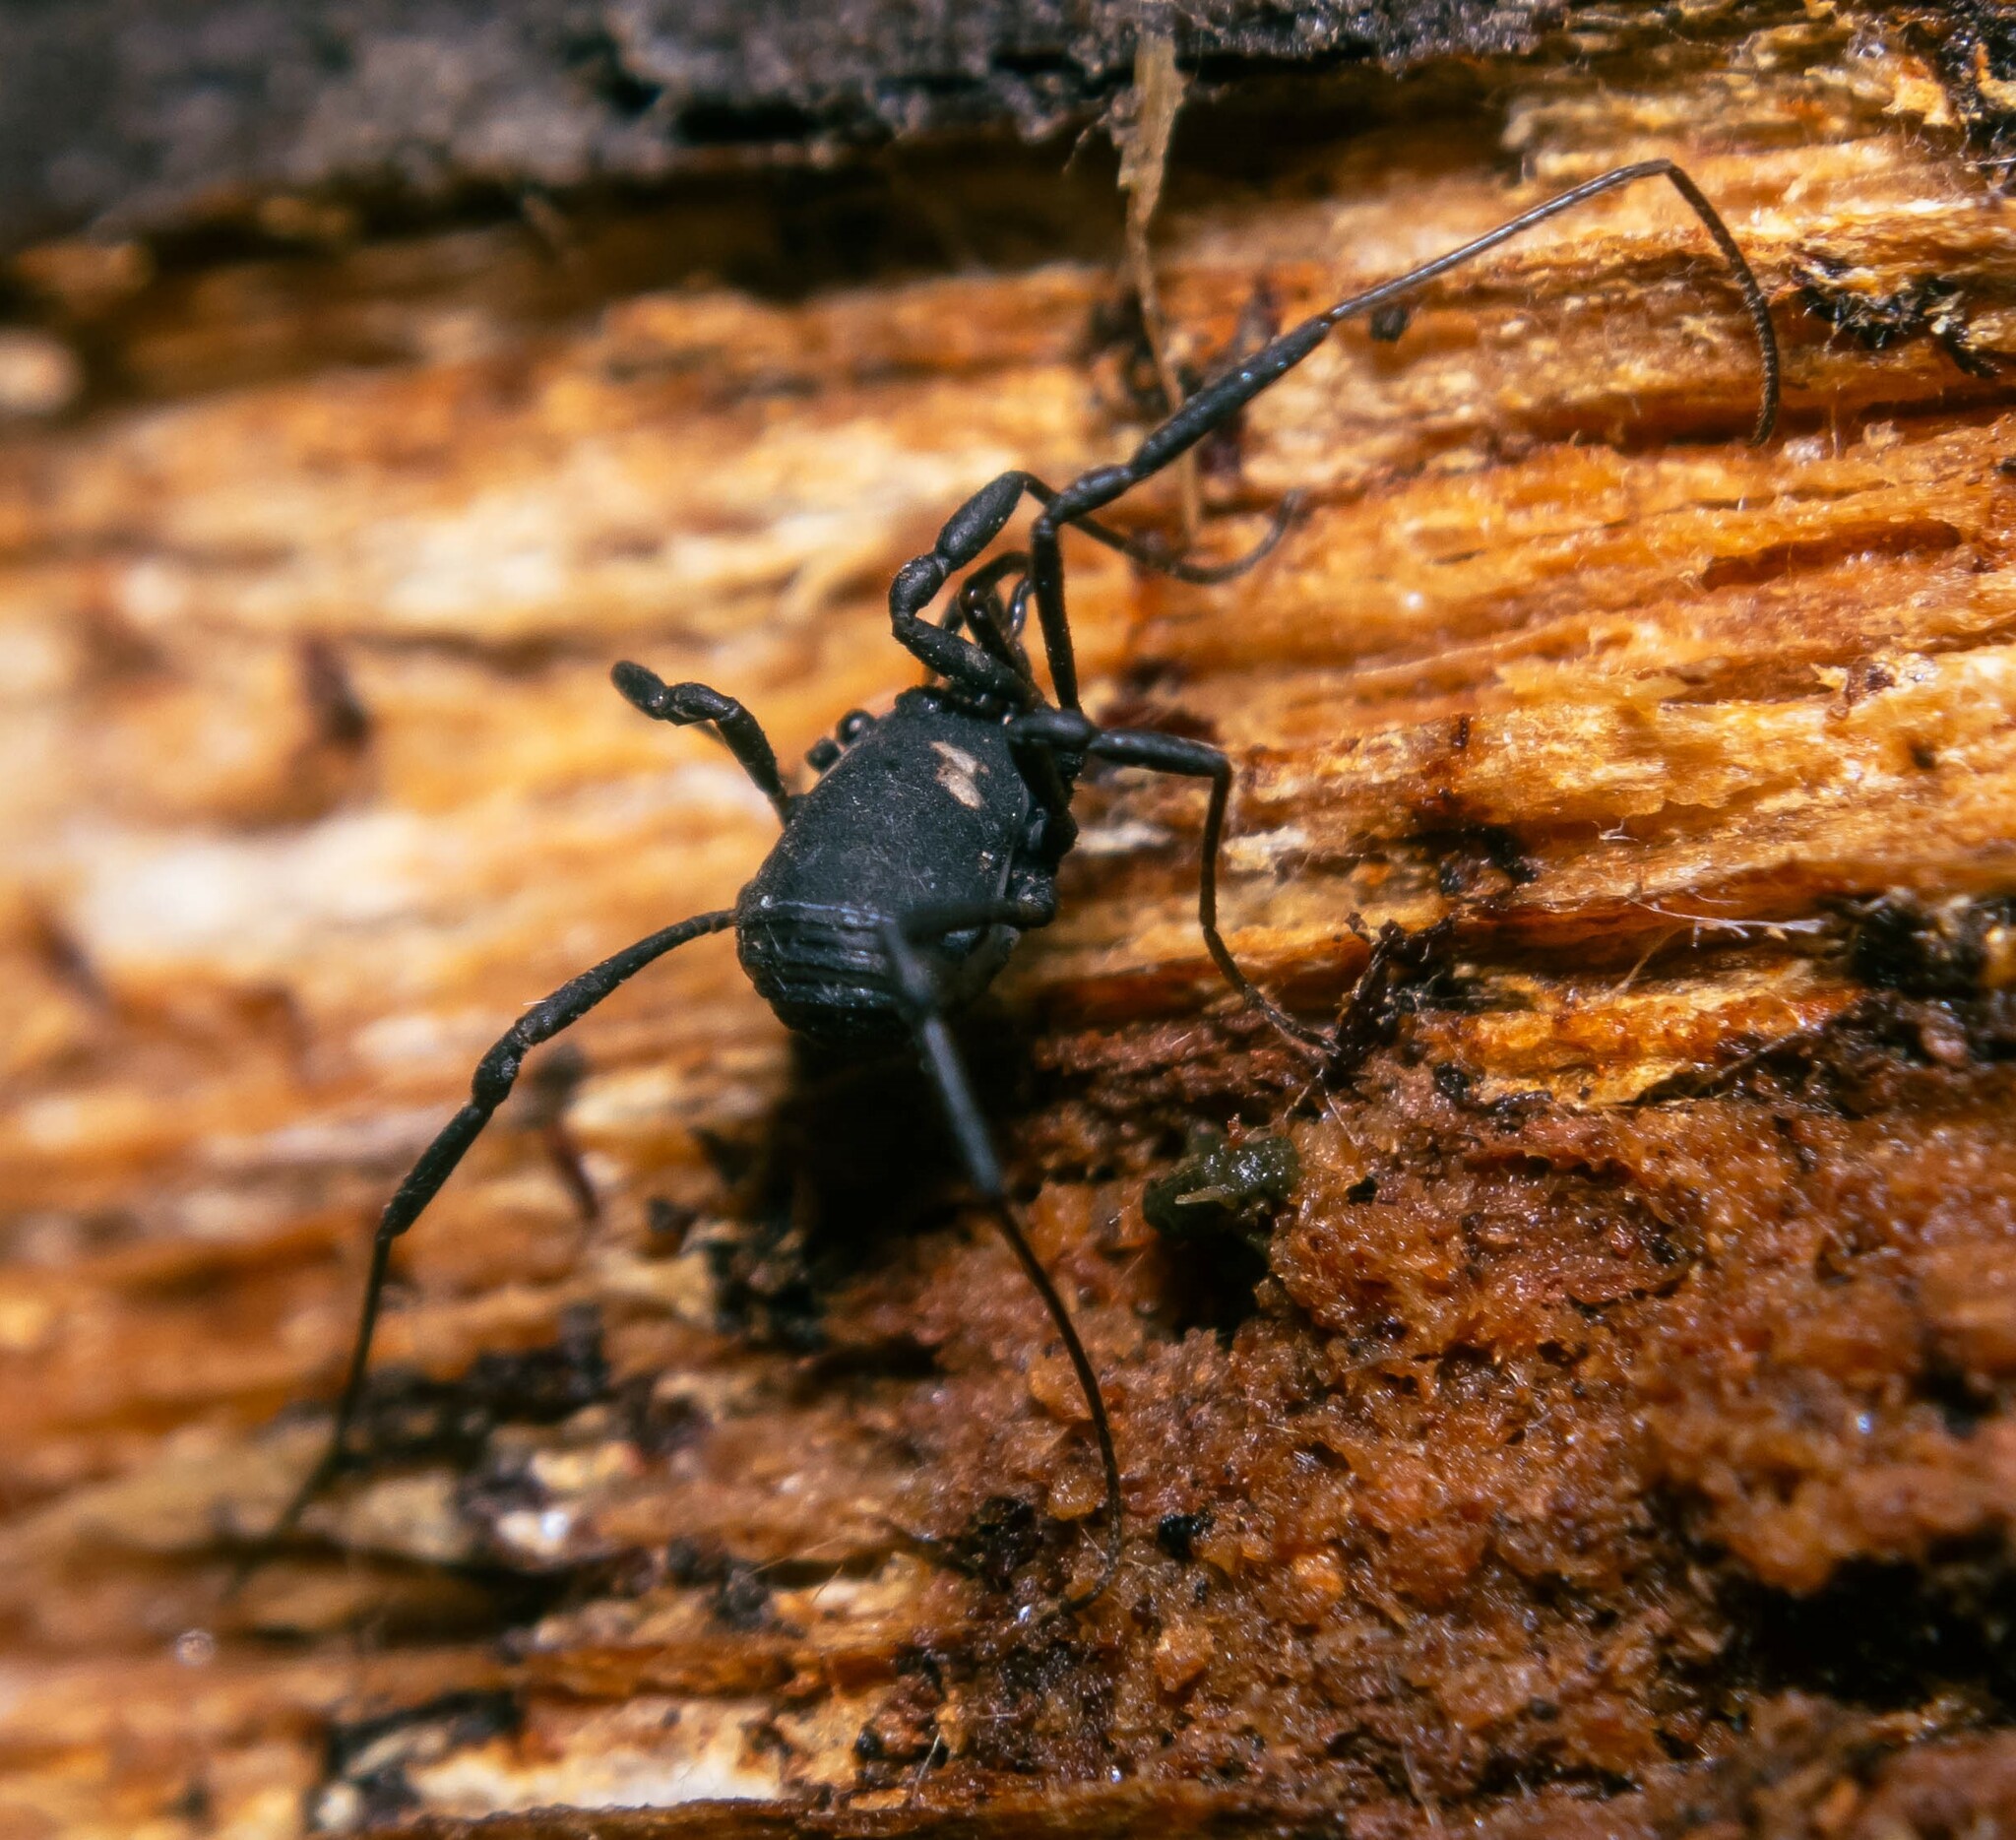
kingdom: Animalia
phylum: Arthropoda
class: Arachnida
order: Opiliones
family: Nemastomatidae
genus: Nemastoma
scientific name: Nemastoma bimaculatum
